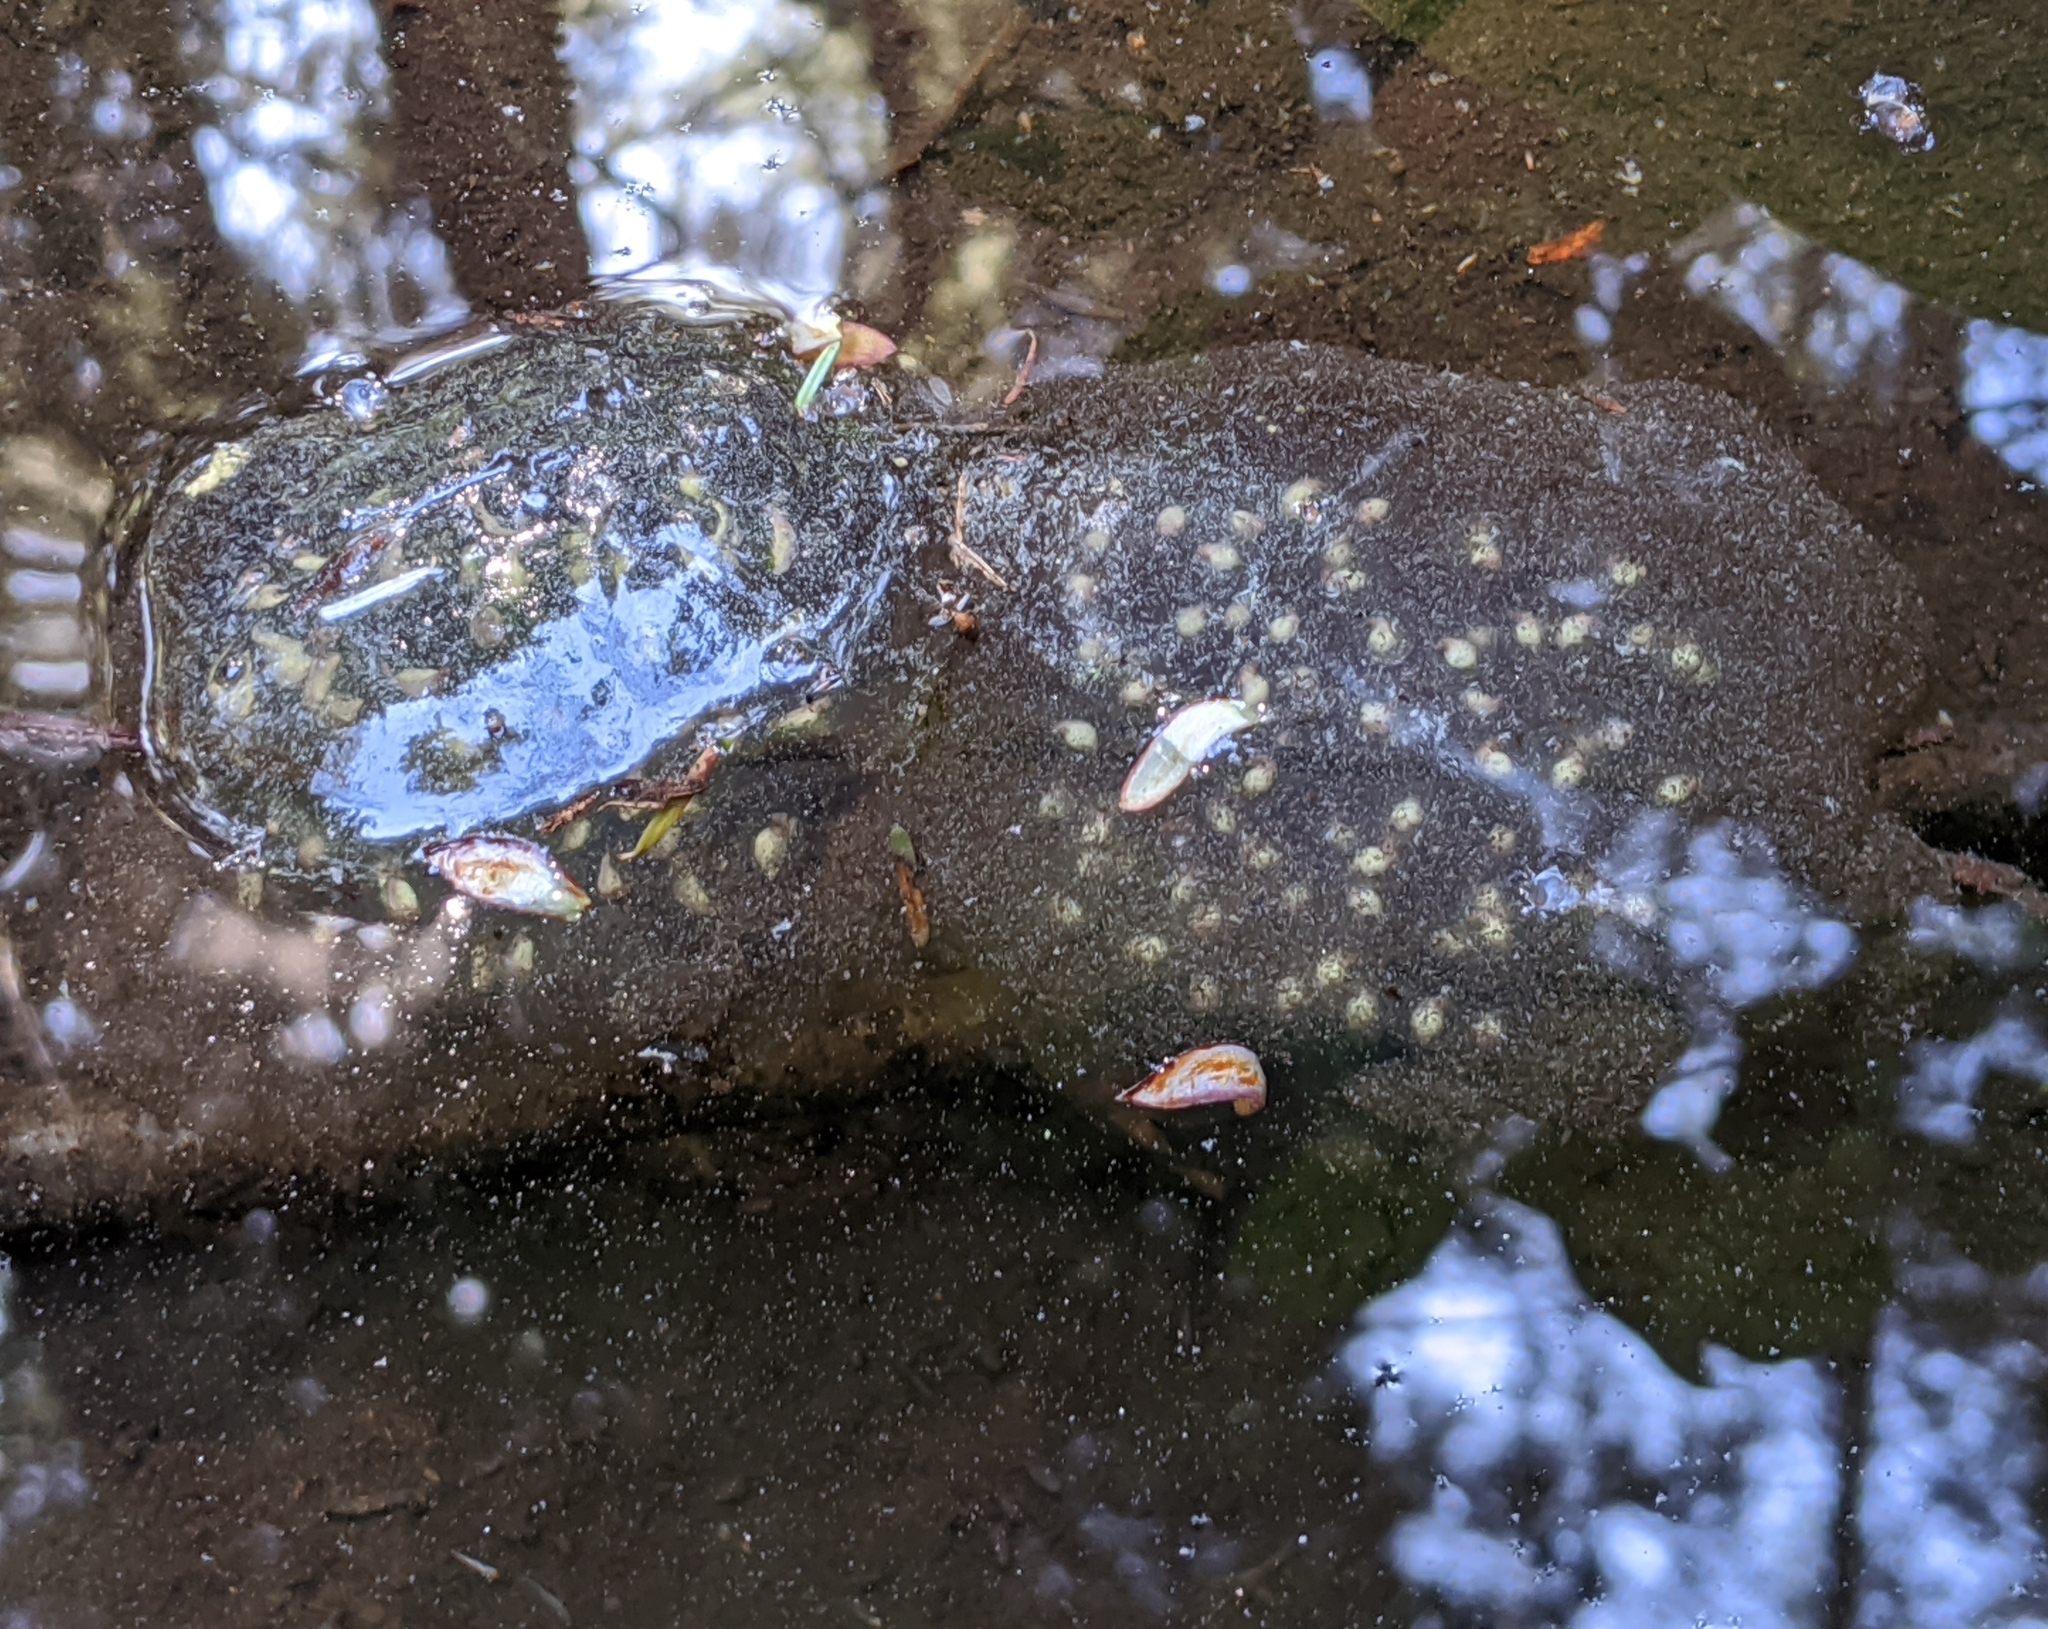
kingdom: Animalia
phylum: Chordata
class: Amphibia
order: Caudata
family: Ambystomatidae
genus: Ambystoma
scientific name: Ambystoma gracile
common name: Northwestern salamander
